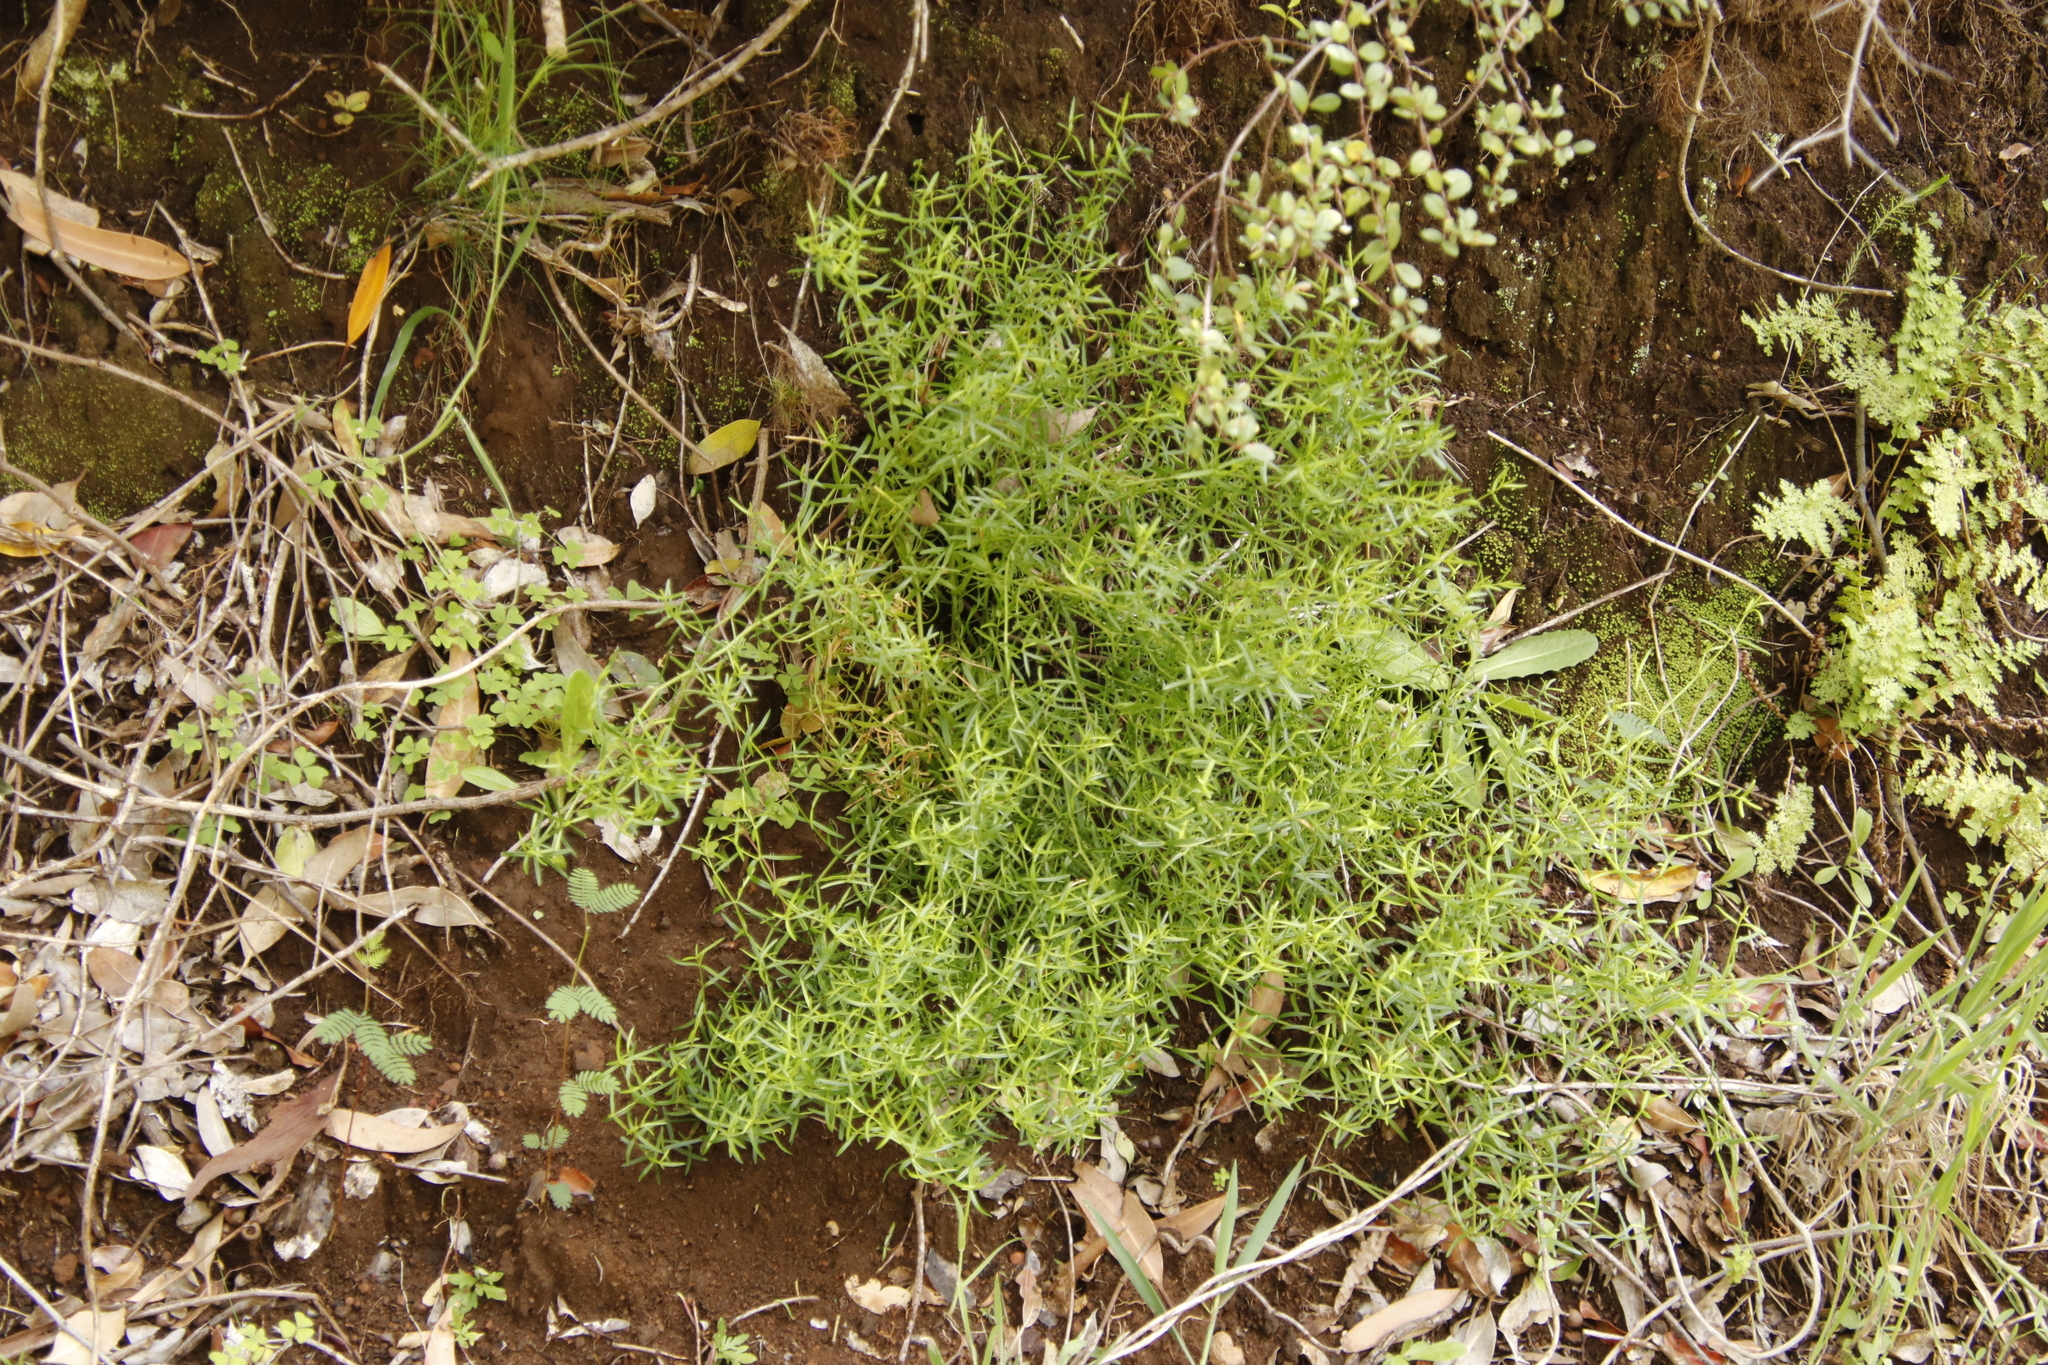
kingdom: Plantae
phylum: Tracheophyta
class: Magnoliopsida
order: Gentianales
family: Gentianaceae
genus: Chironia
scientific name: Chironia baccifera
